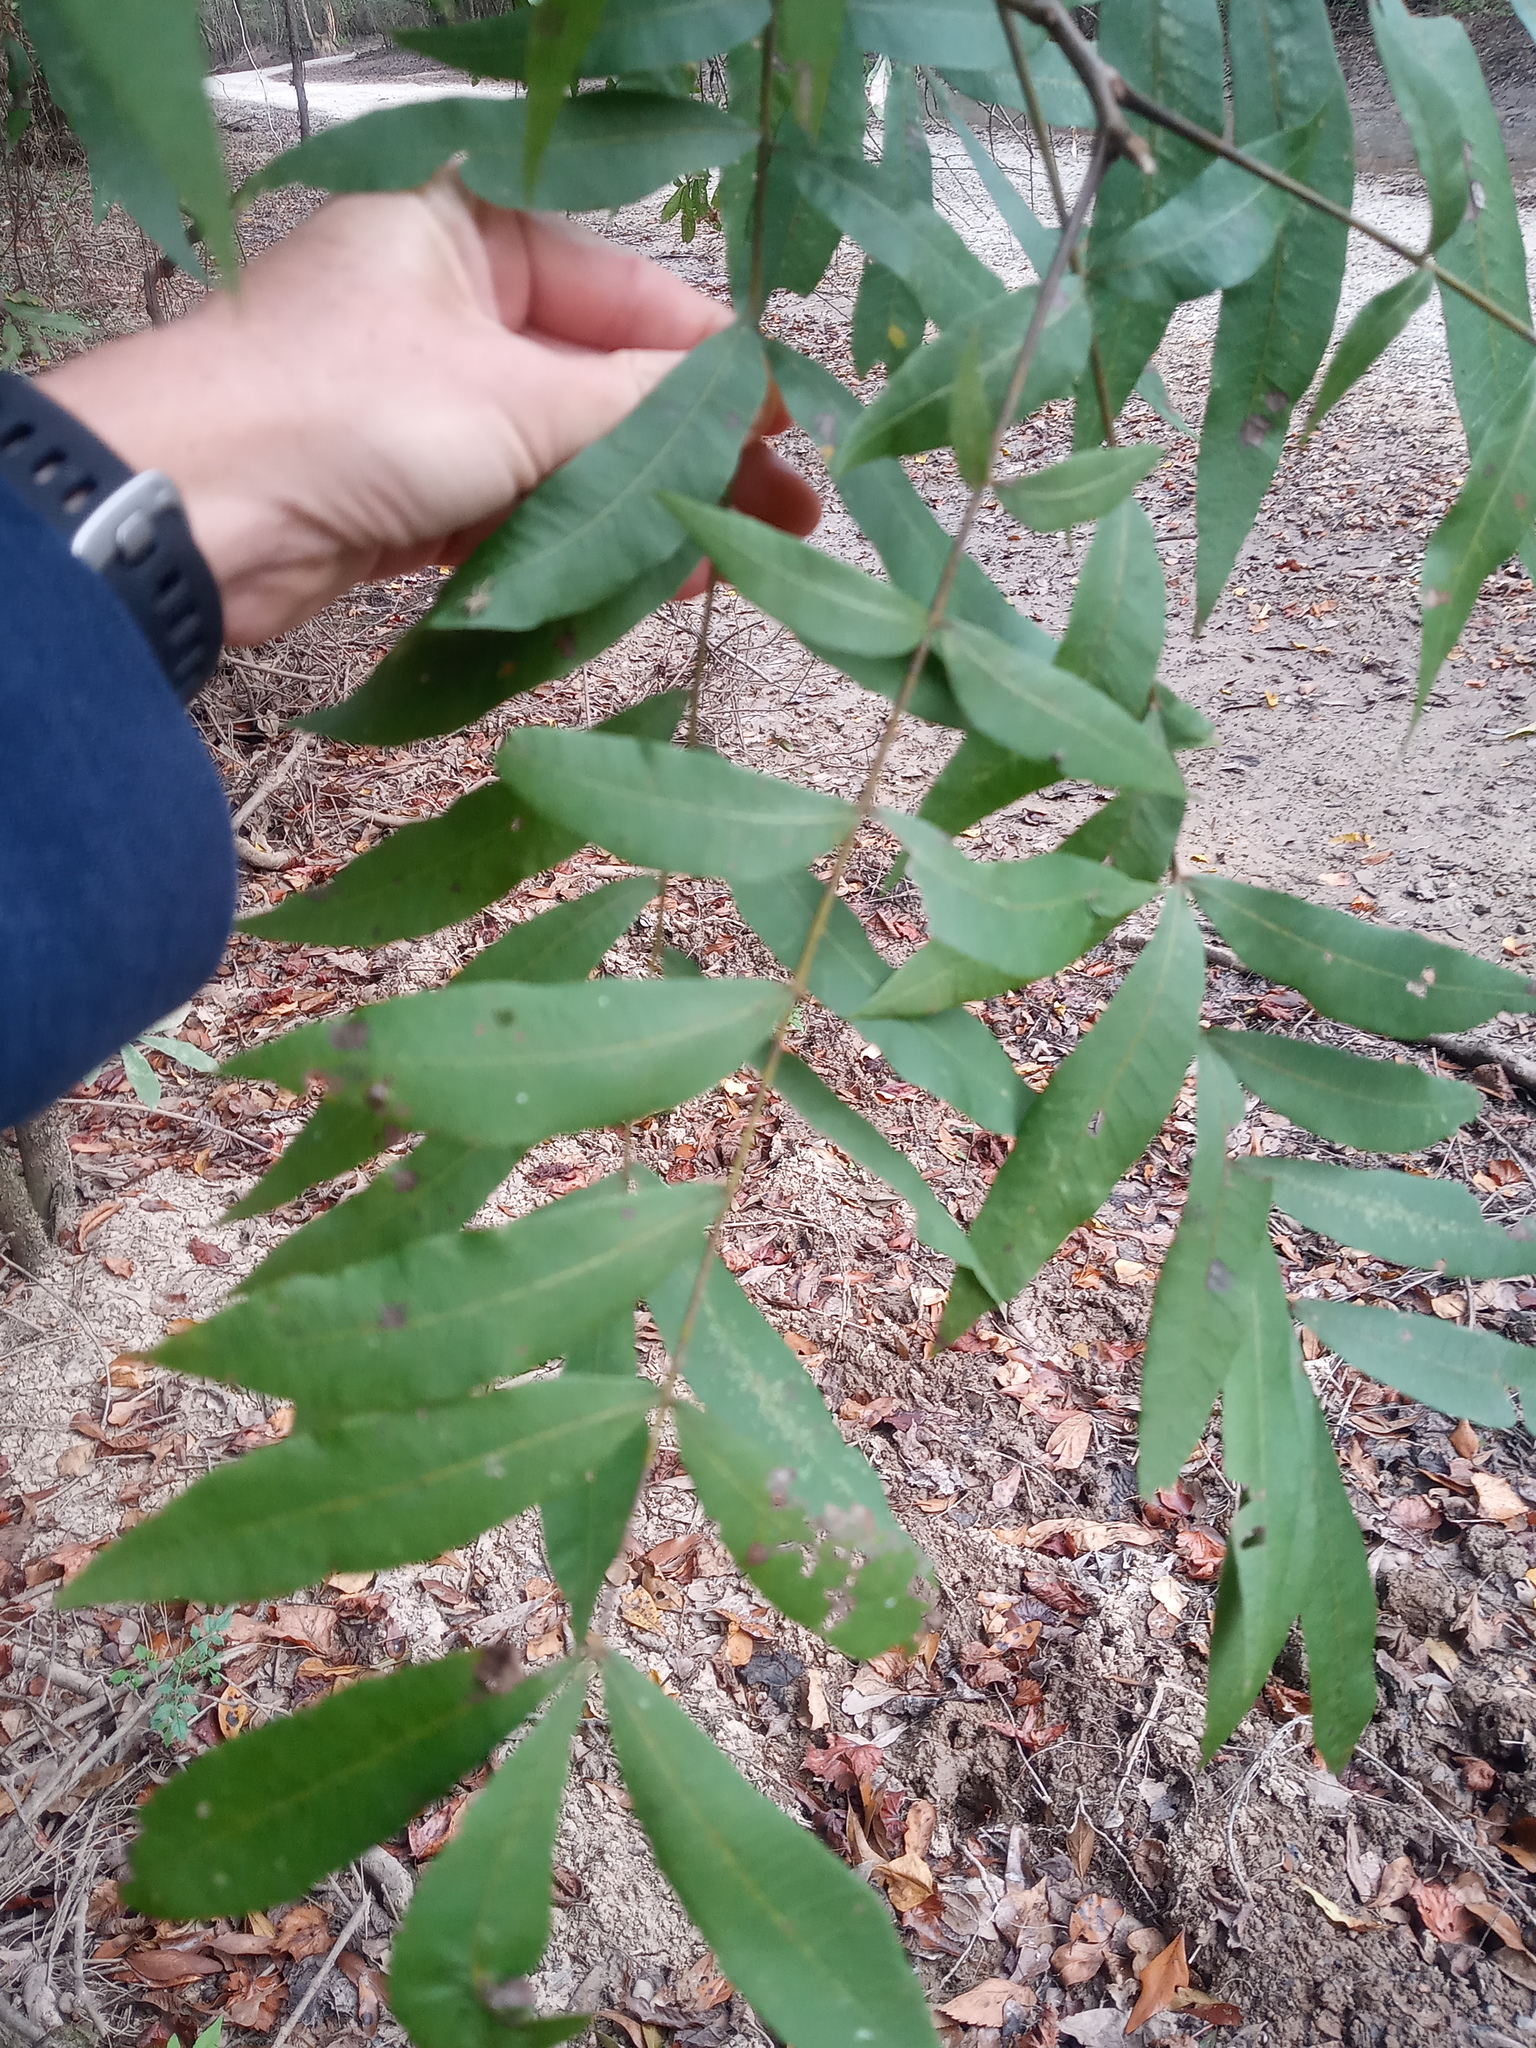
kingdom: Plantae
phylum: Tracheophyta
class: Magnoliopsida
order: Fagales
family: Juglandaceae
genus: Carya
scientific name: Carya aquatica
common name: Water hickory
